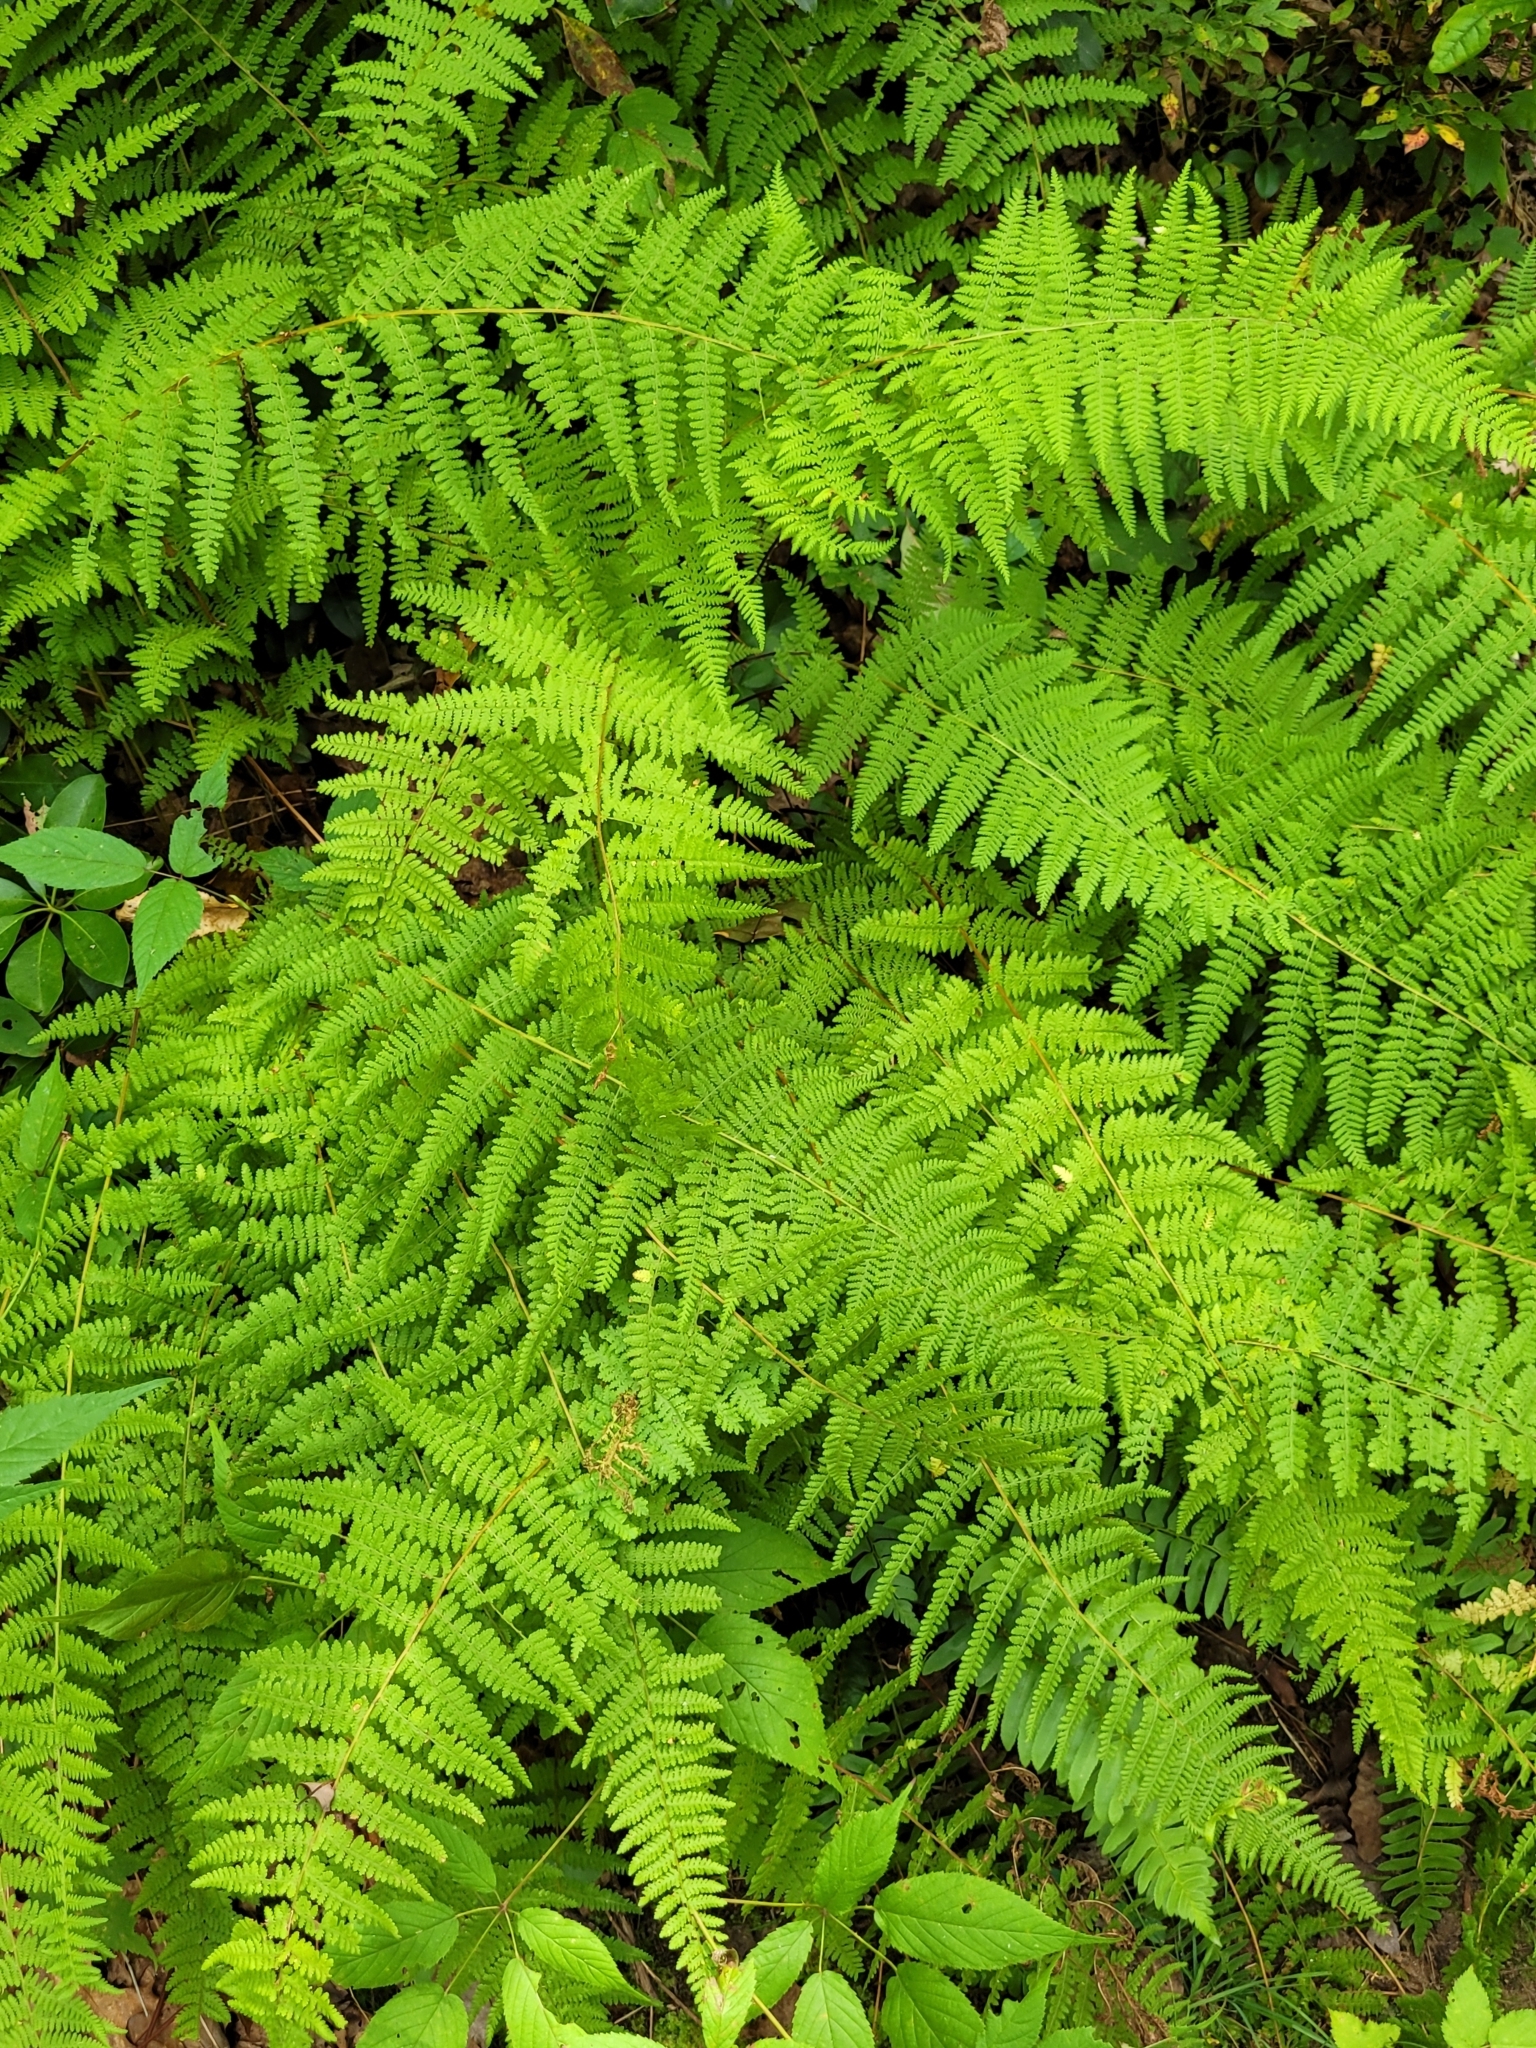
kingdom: Plantae
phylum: Tracheophyta
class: Polypodiopsida
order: Polypodiales
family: Dennstaedtiaceae
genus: Sitobolium
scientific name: Sitobolium punctilobum
